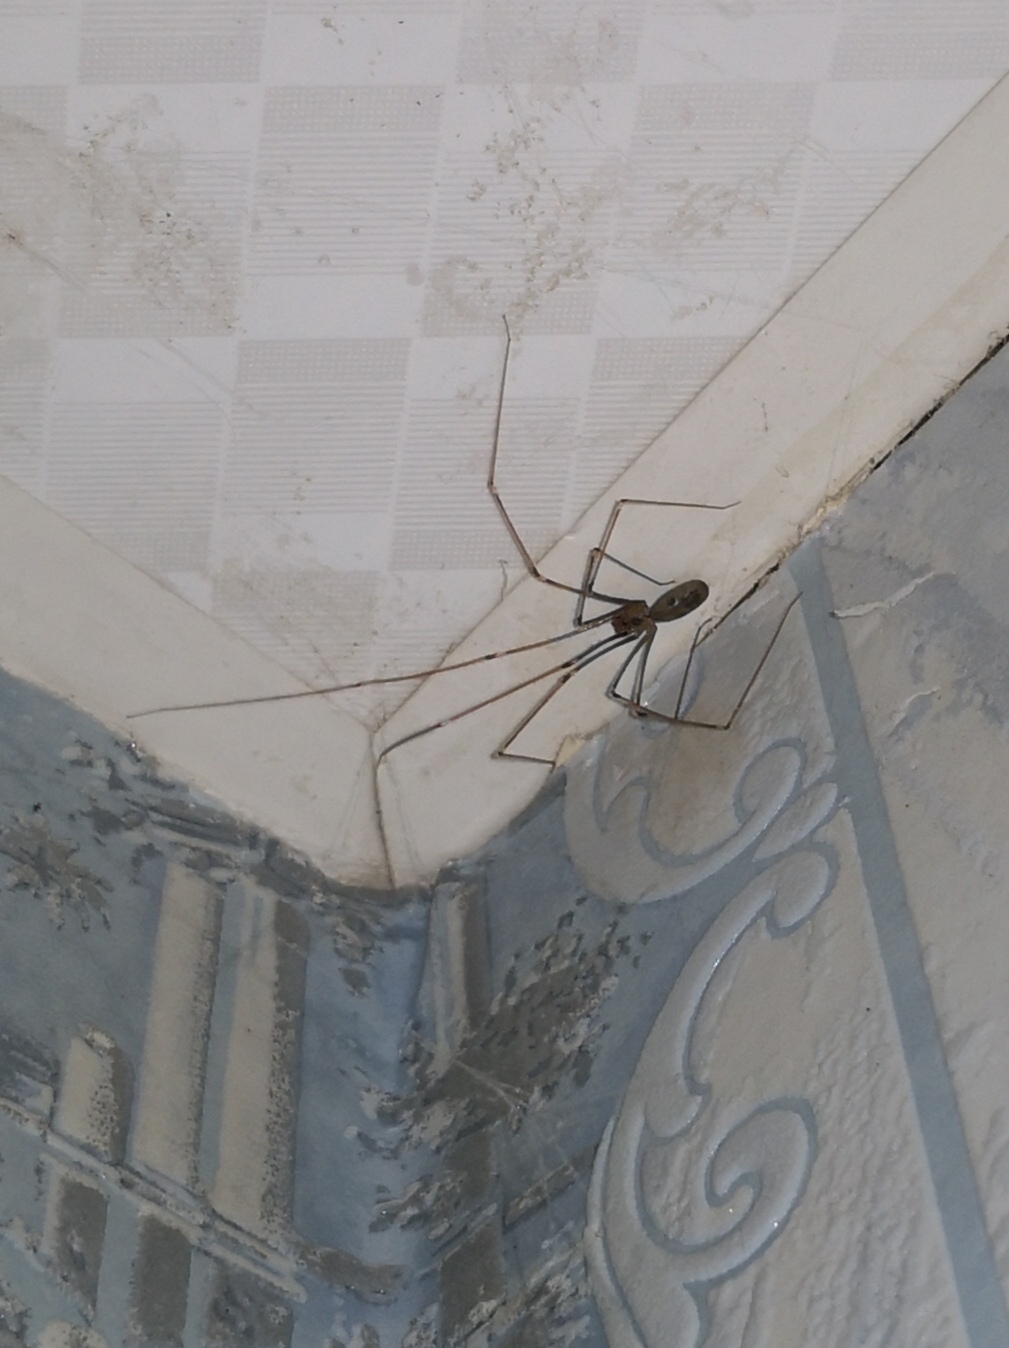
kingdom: Animalia
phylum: Arthropoda
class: Arachnida
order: Araneae
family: Pholcidae
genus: Pholcus
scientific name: Pholcus phalangioides
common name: Longbodied cellar spider
